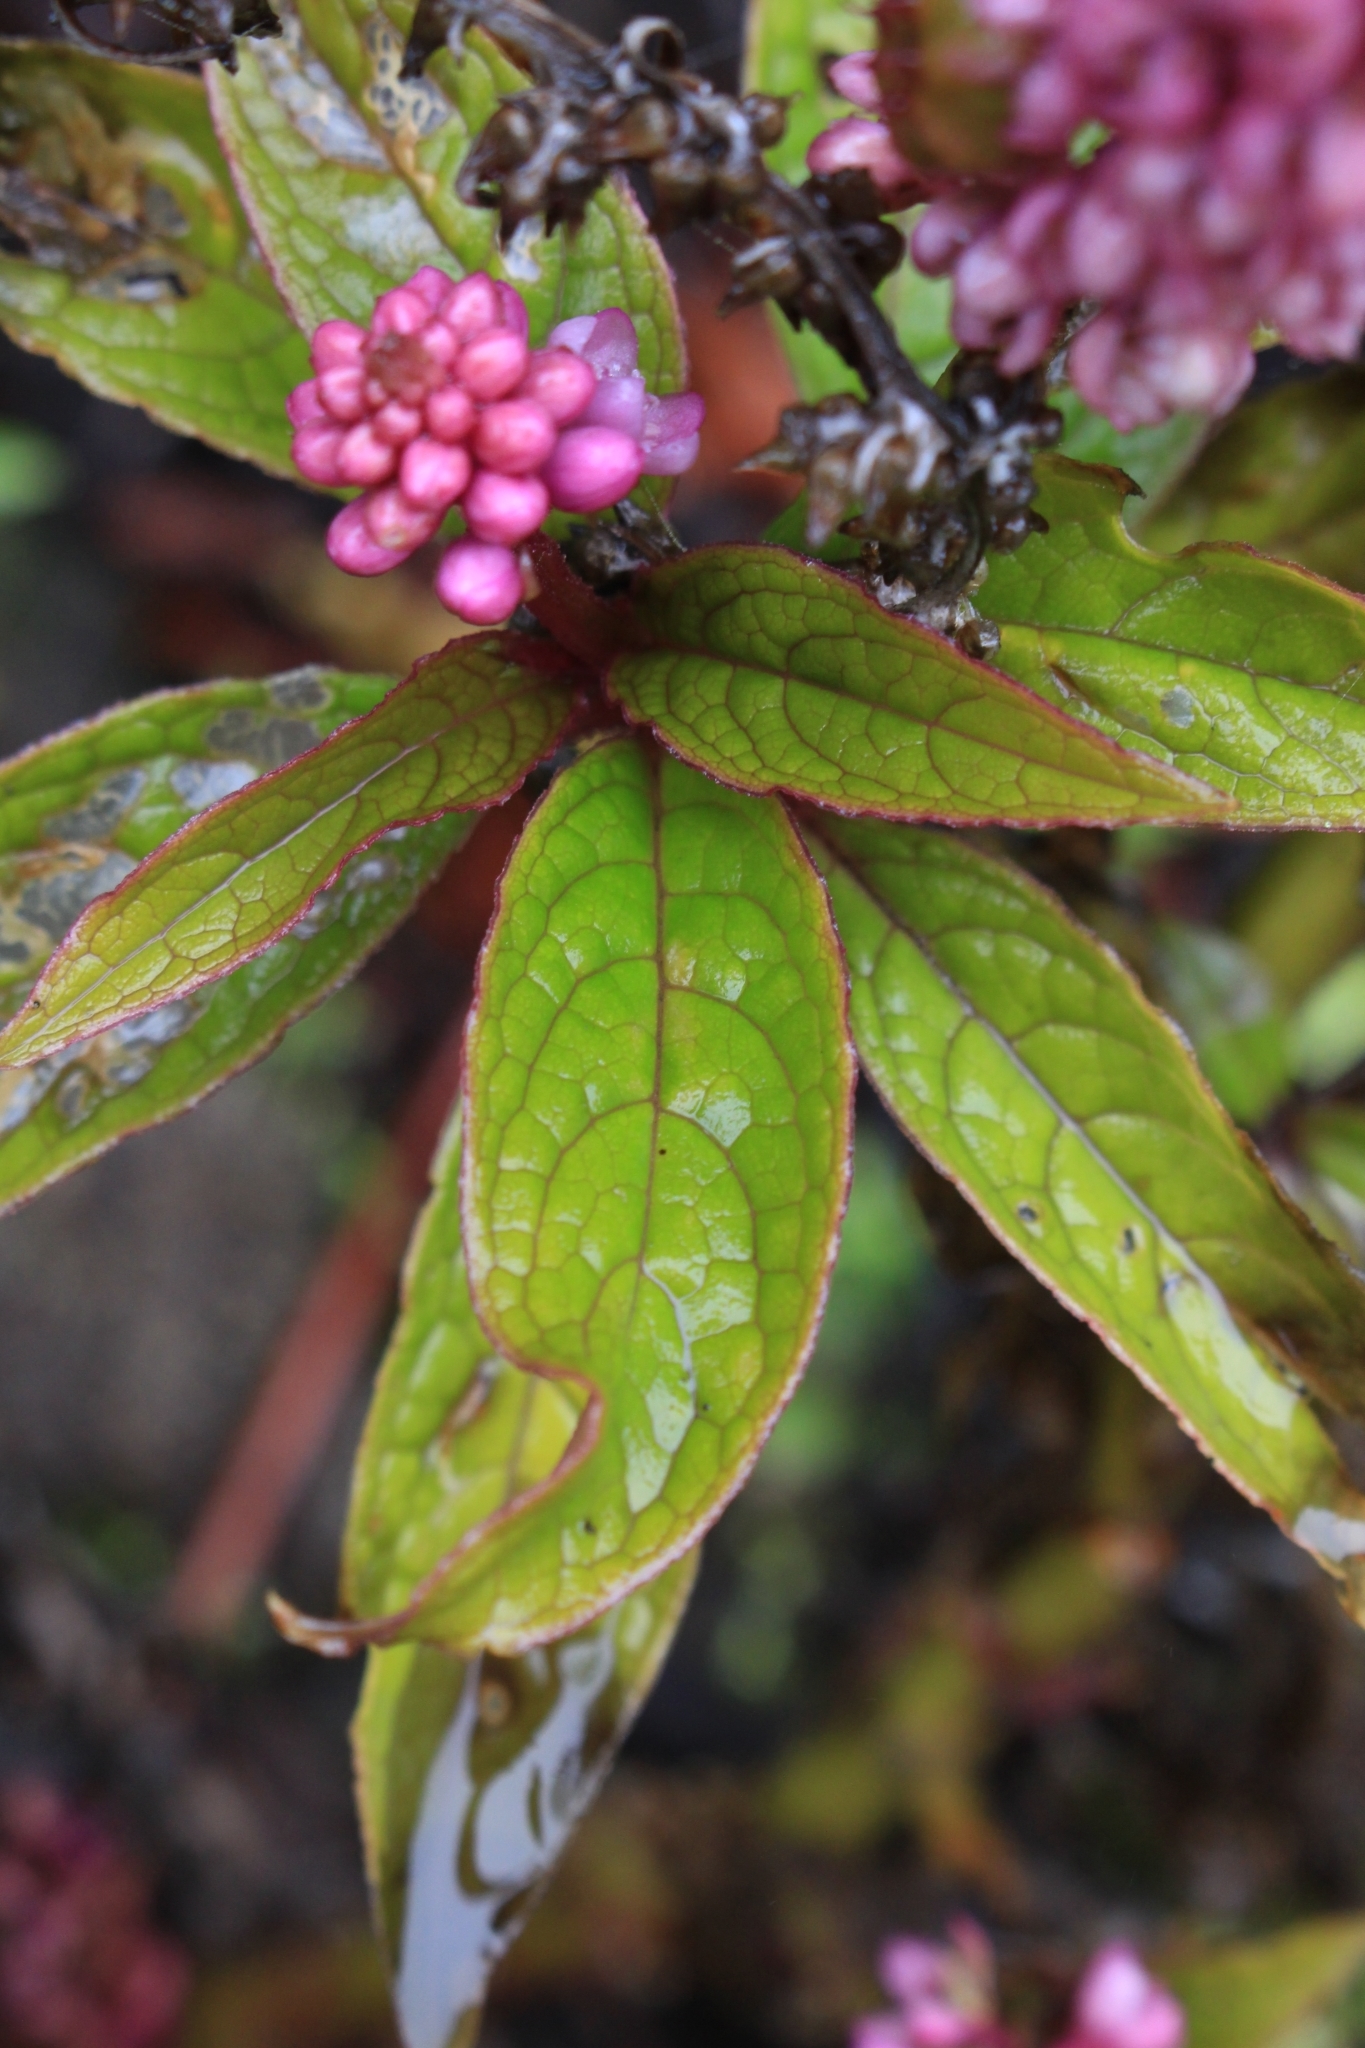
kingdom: Plantae
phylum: Tracheophyta
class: Magnoliopsida
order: Caryophyllales
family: Phytolaccaceae
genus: Phytolacca
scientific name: Phytolacca rugosa
